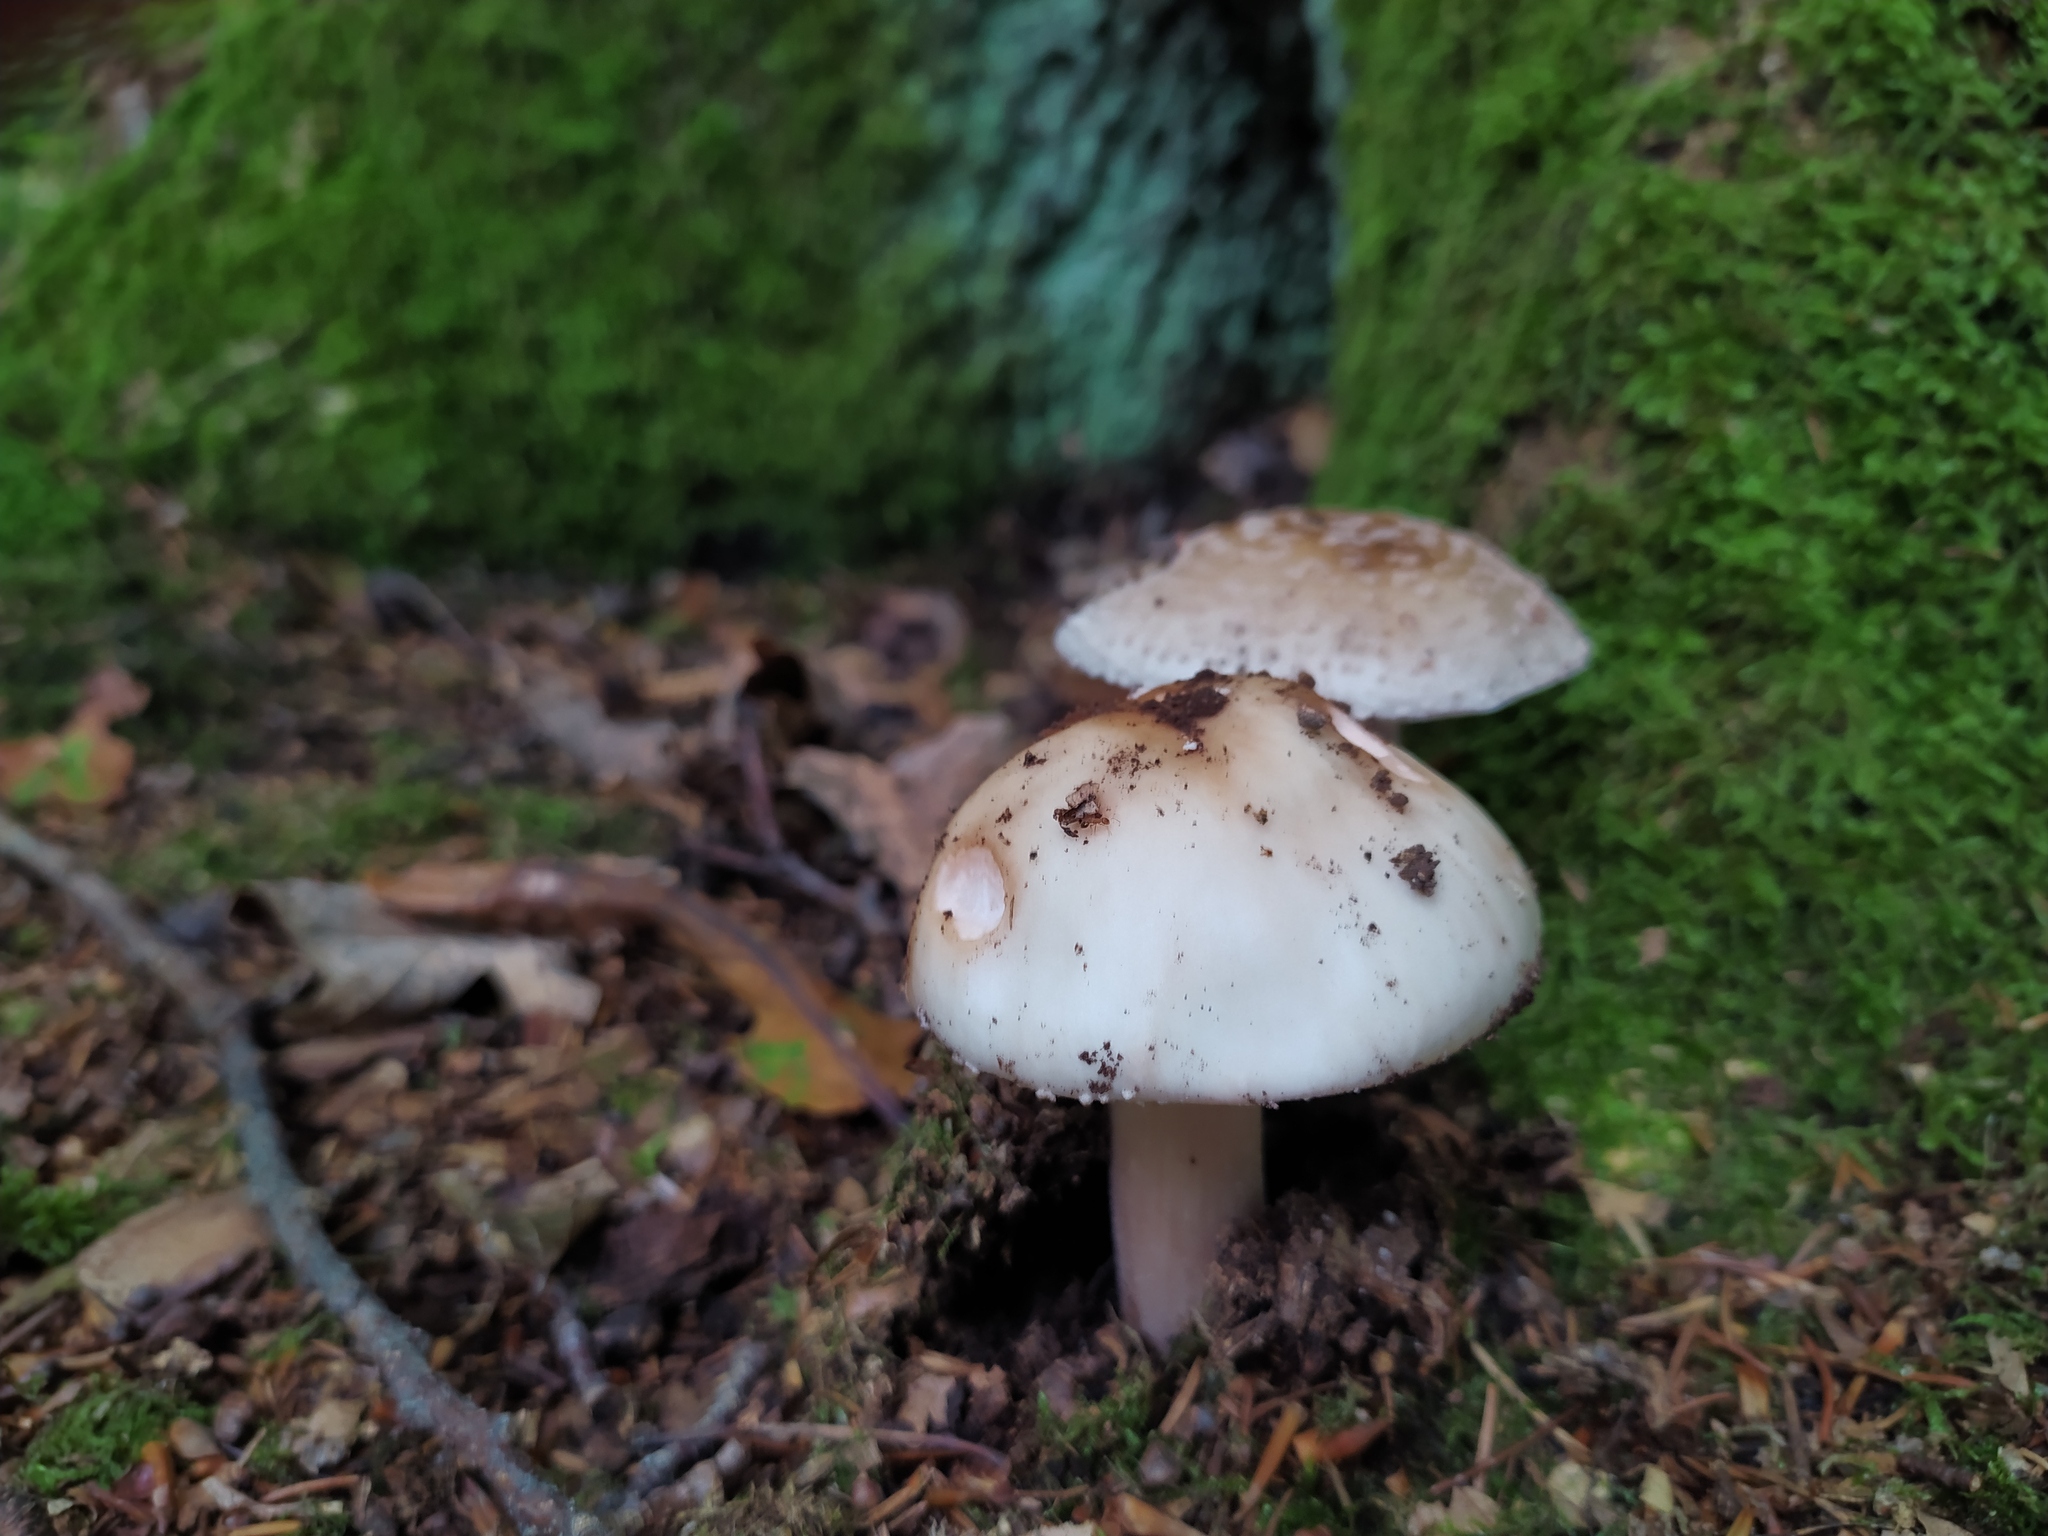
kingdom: Fungi
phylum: Basidiomycota
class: Agaricomycetes
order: Agaricales
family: Amanitaceae
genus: Amanita
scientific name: Amanita rubescens
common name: Blusher
